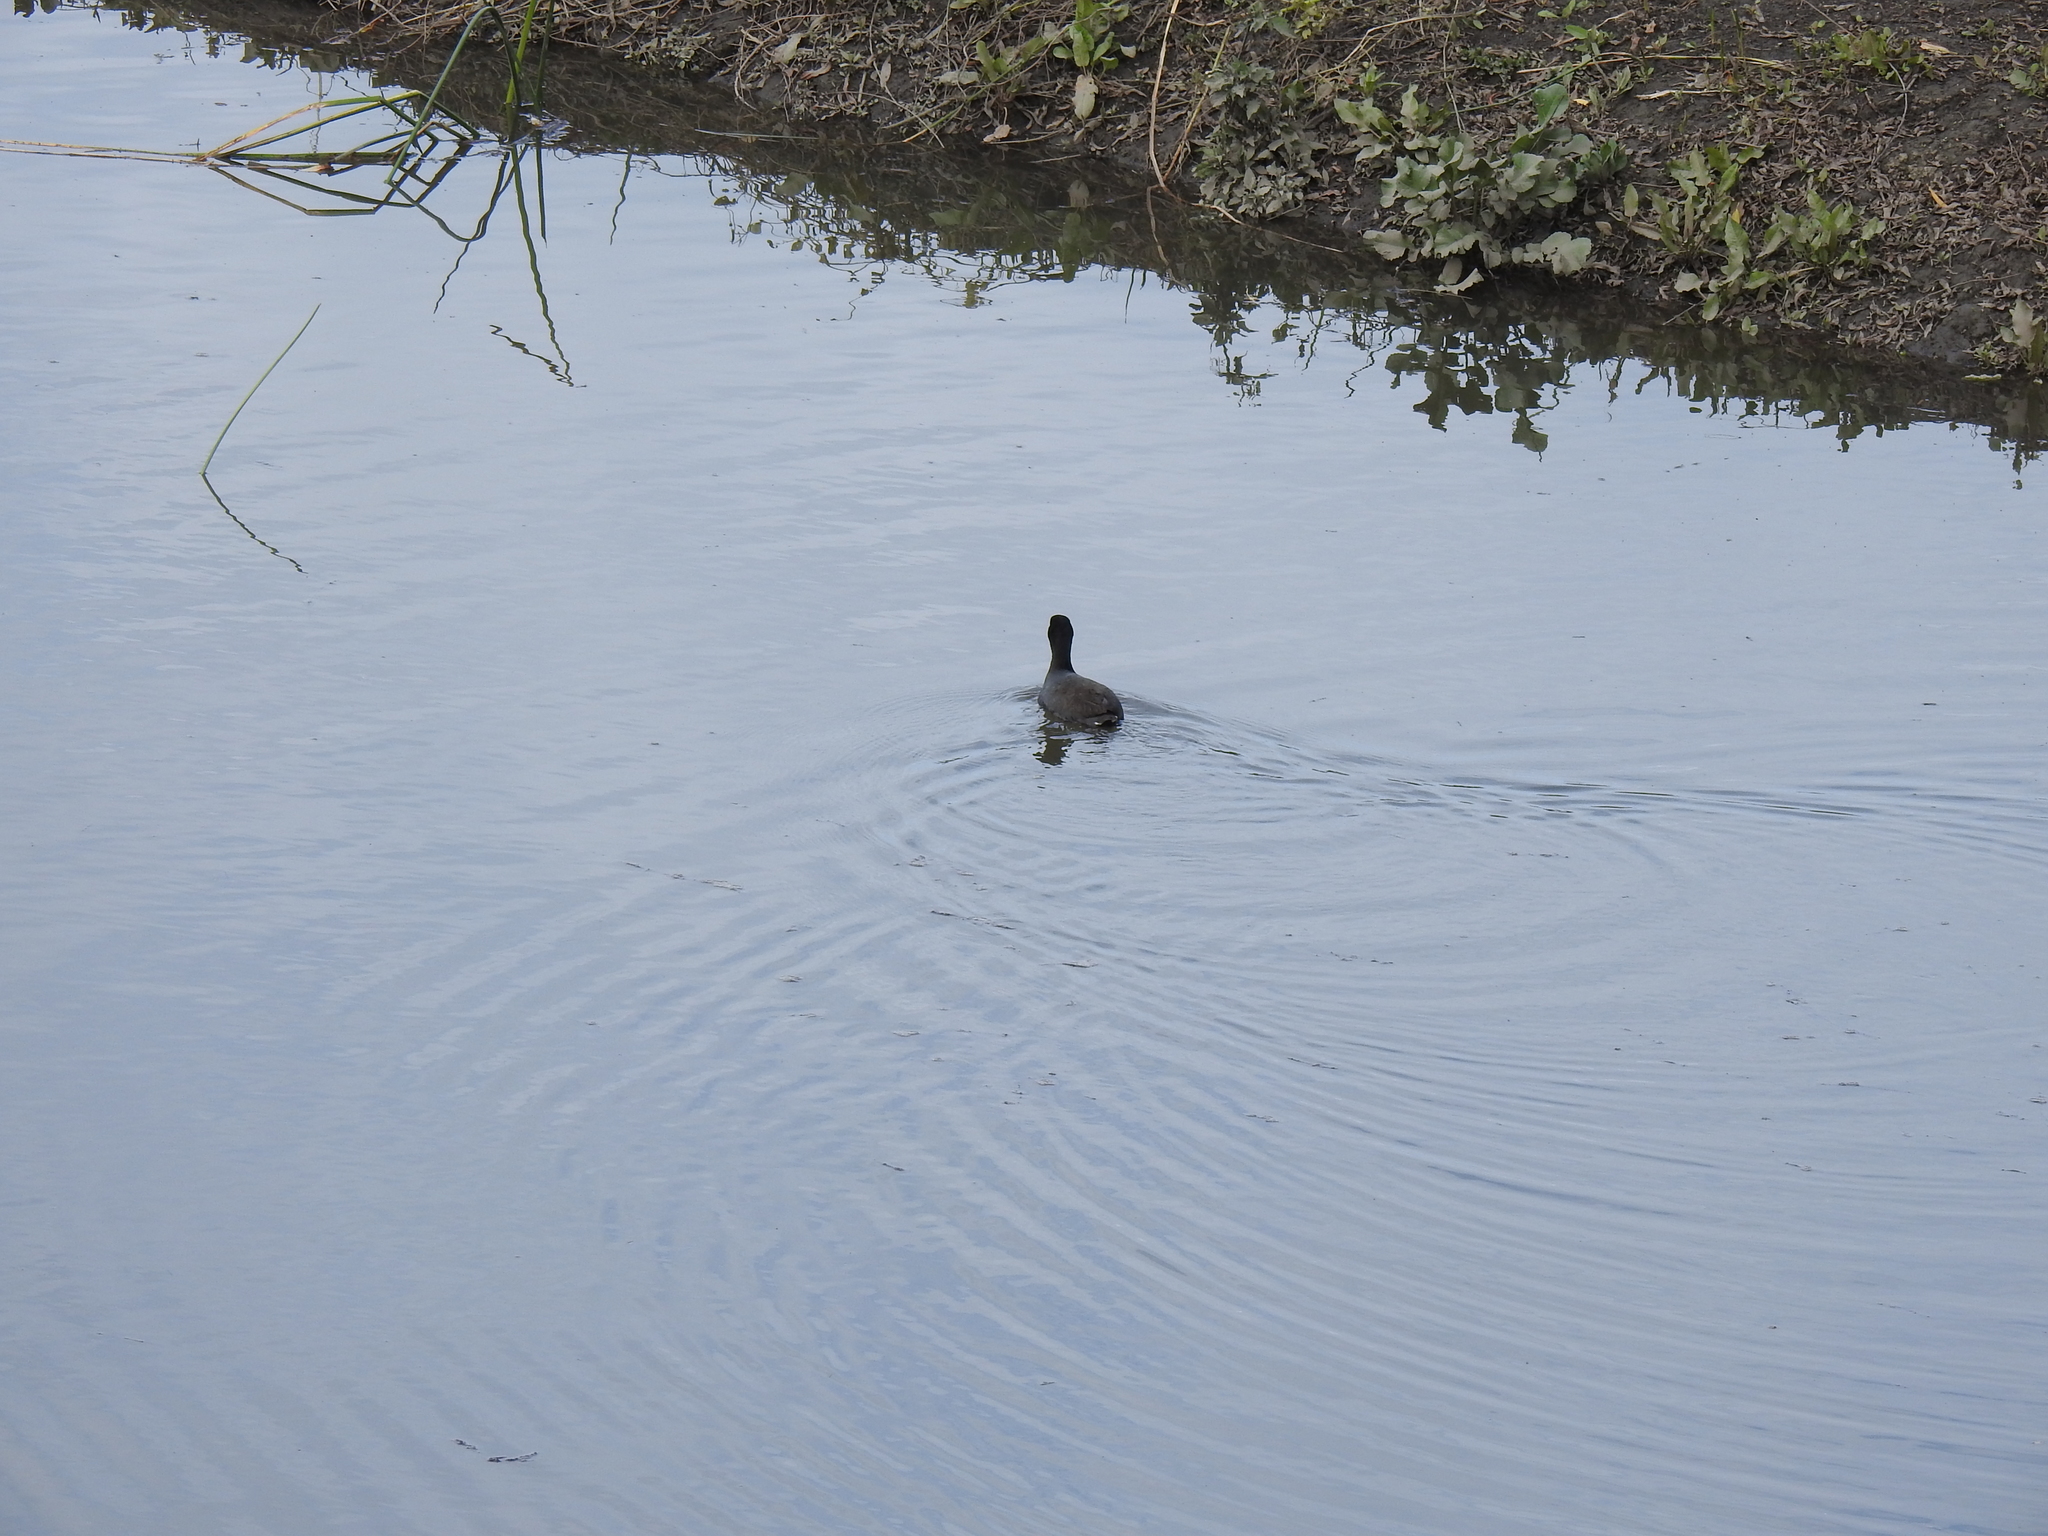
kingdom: Animalia
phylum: Chordata
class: Aves
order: Gruiformes
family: Rallidae
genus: Fulica
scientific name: Fulica americana
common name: American coot
